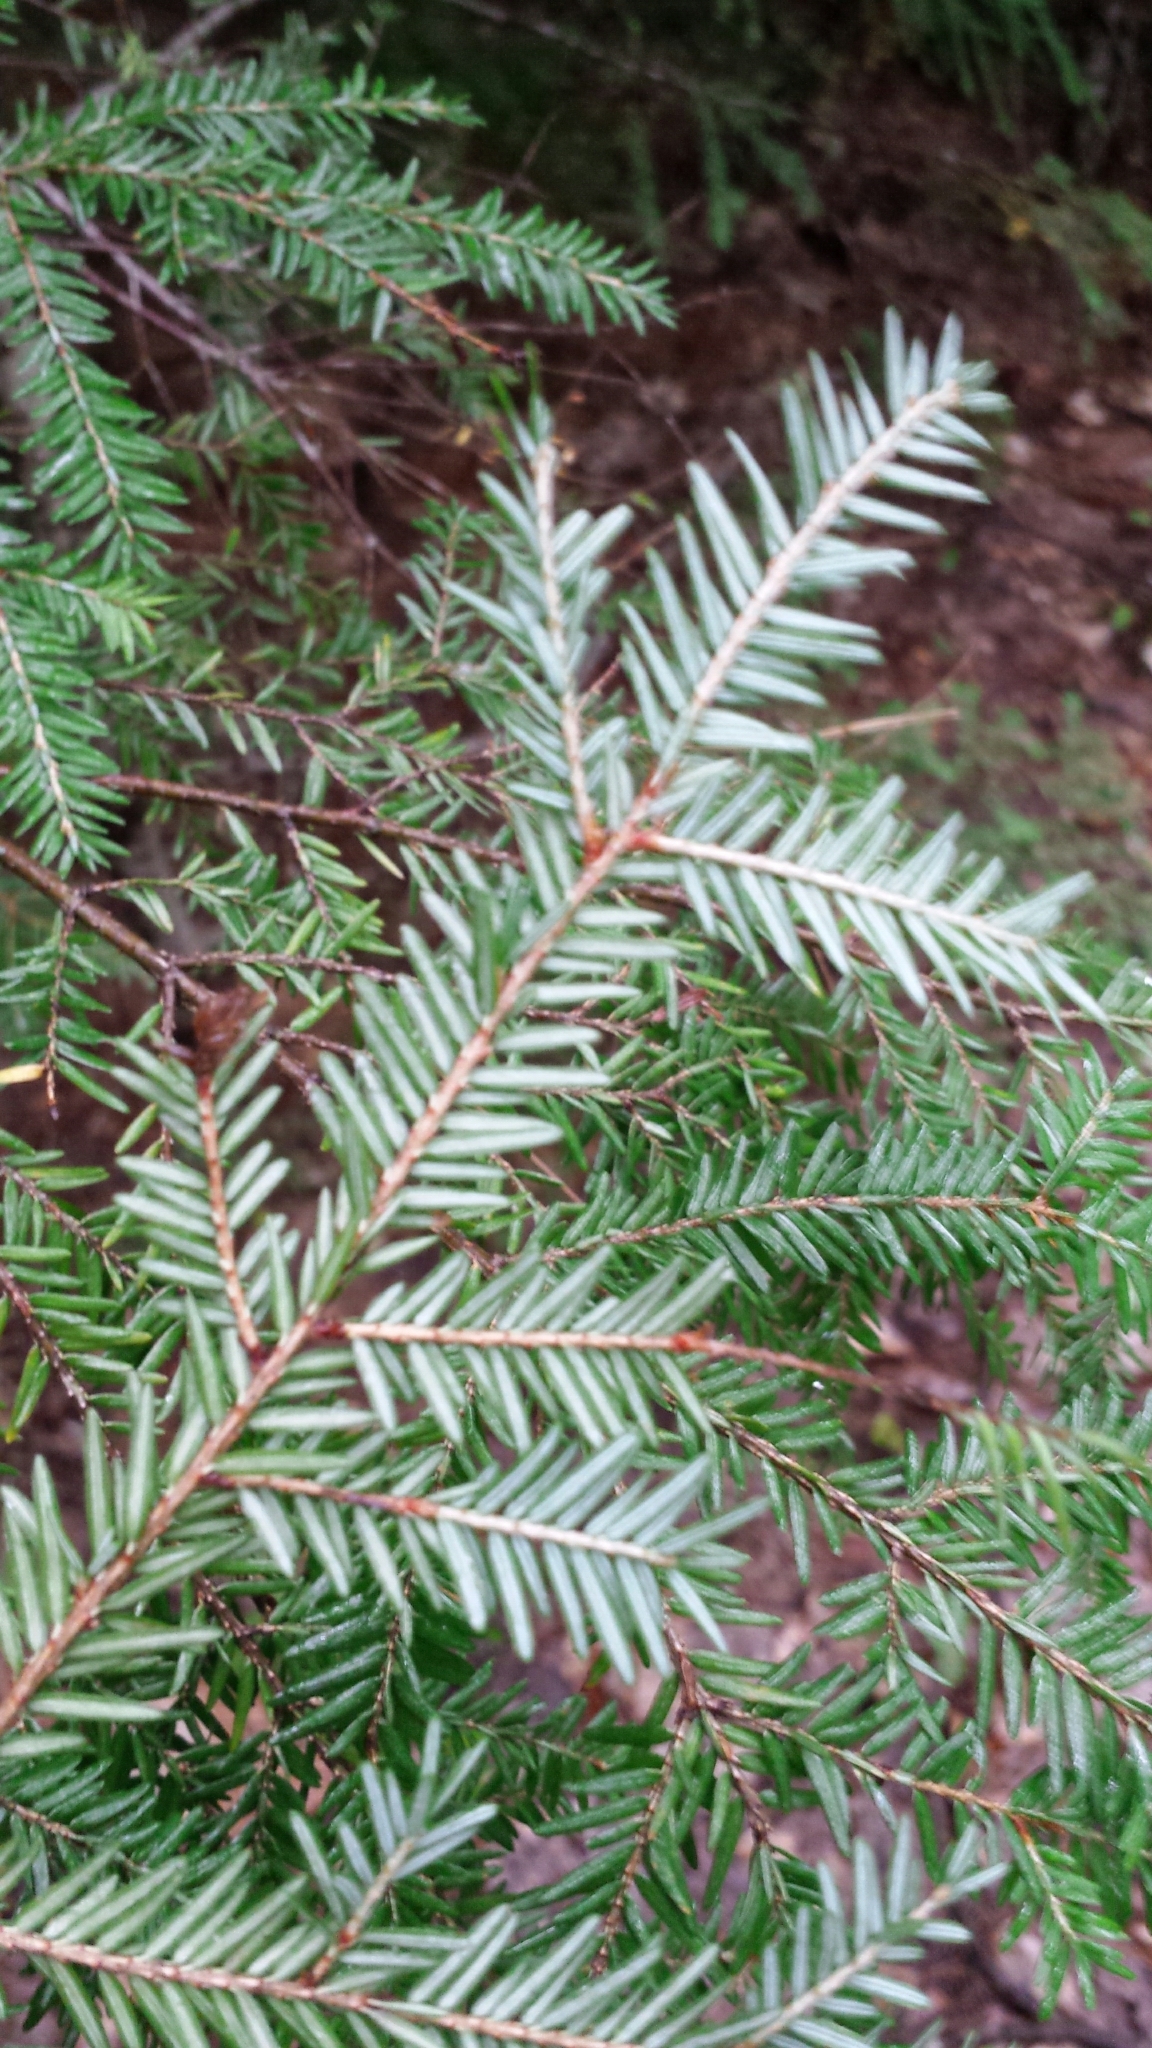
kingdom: Plantae
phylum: Tracheophyta
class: Pinopsida
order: Pinales
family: Pinaceae
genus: Tsuga
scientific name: Tsuga canadensis
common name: Eastern hemlock
